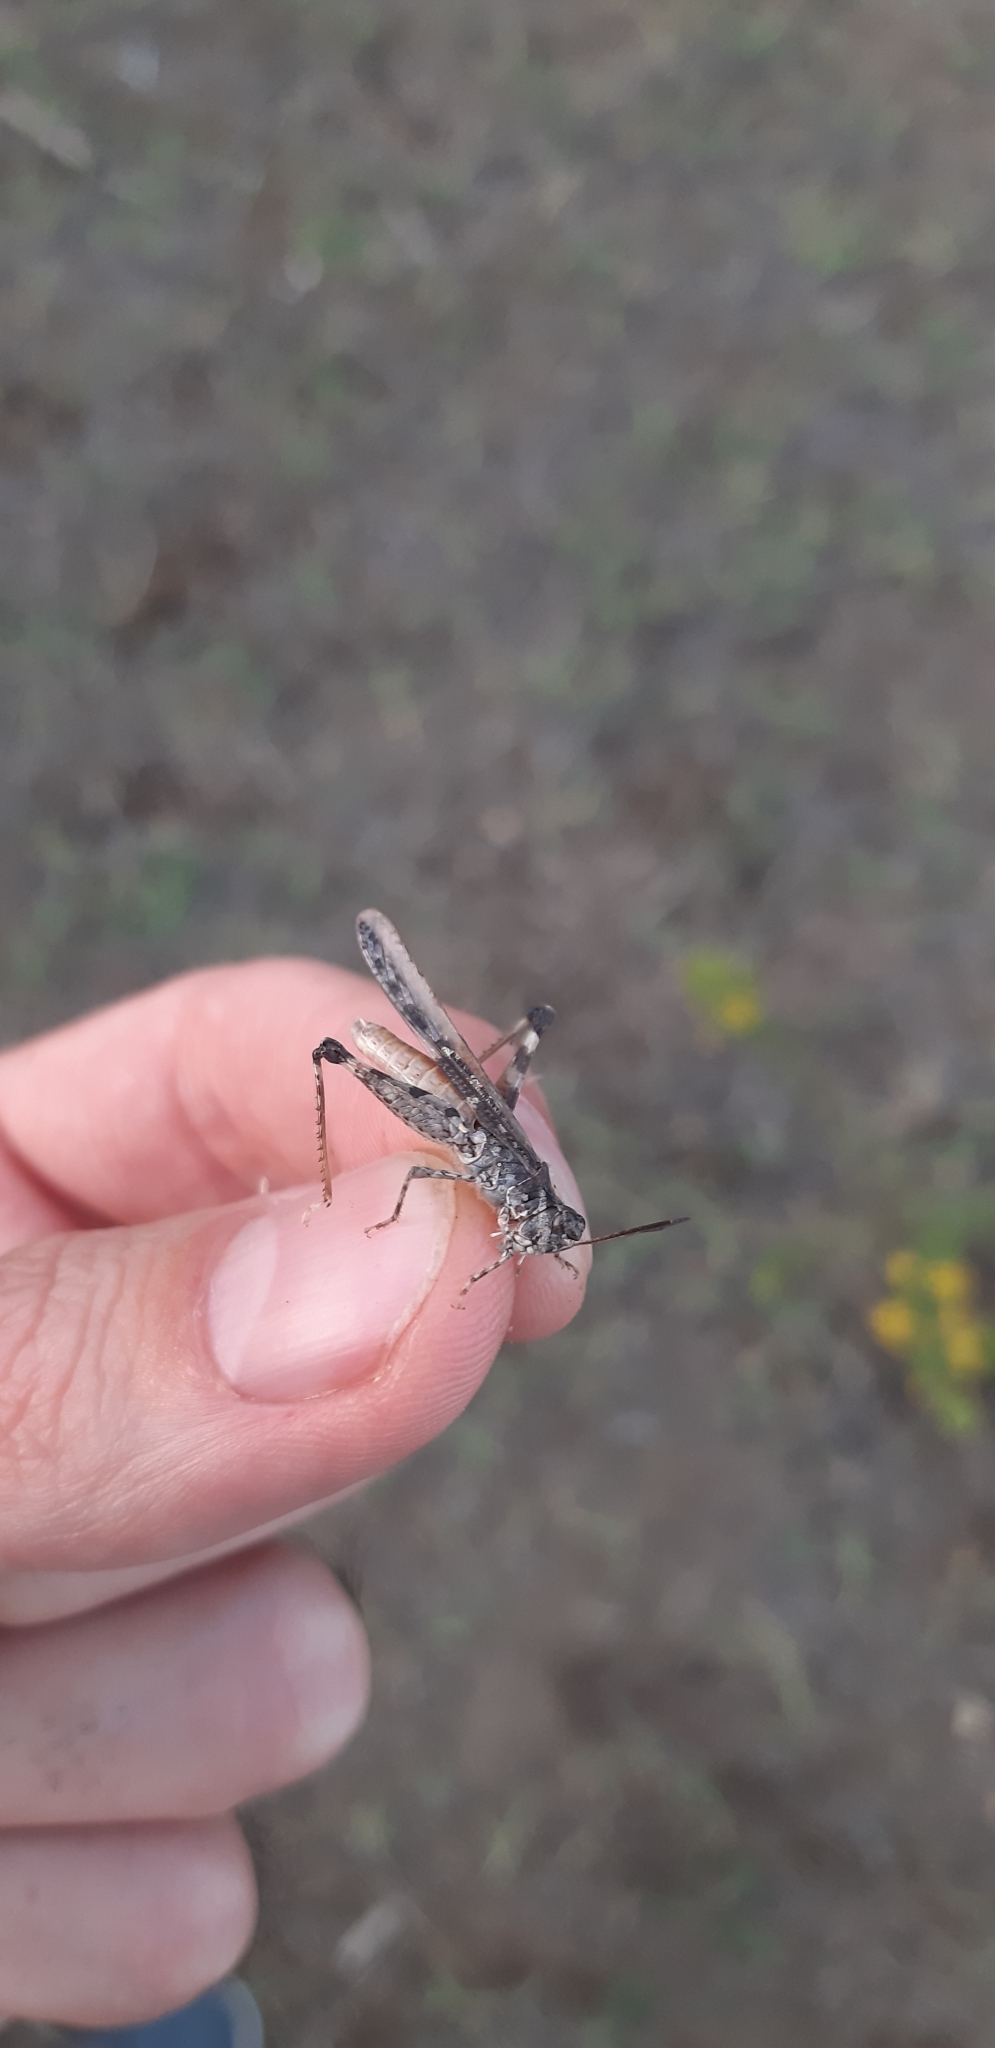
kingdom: Animalia
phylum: Arthropoda
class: Insecta
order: Orthoptera
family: Acrididae
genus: Acrotylus
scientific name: Acrotylus patruelis
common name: Slender burrowing grasshopper
